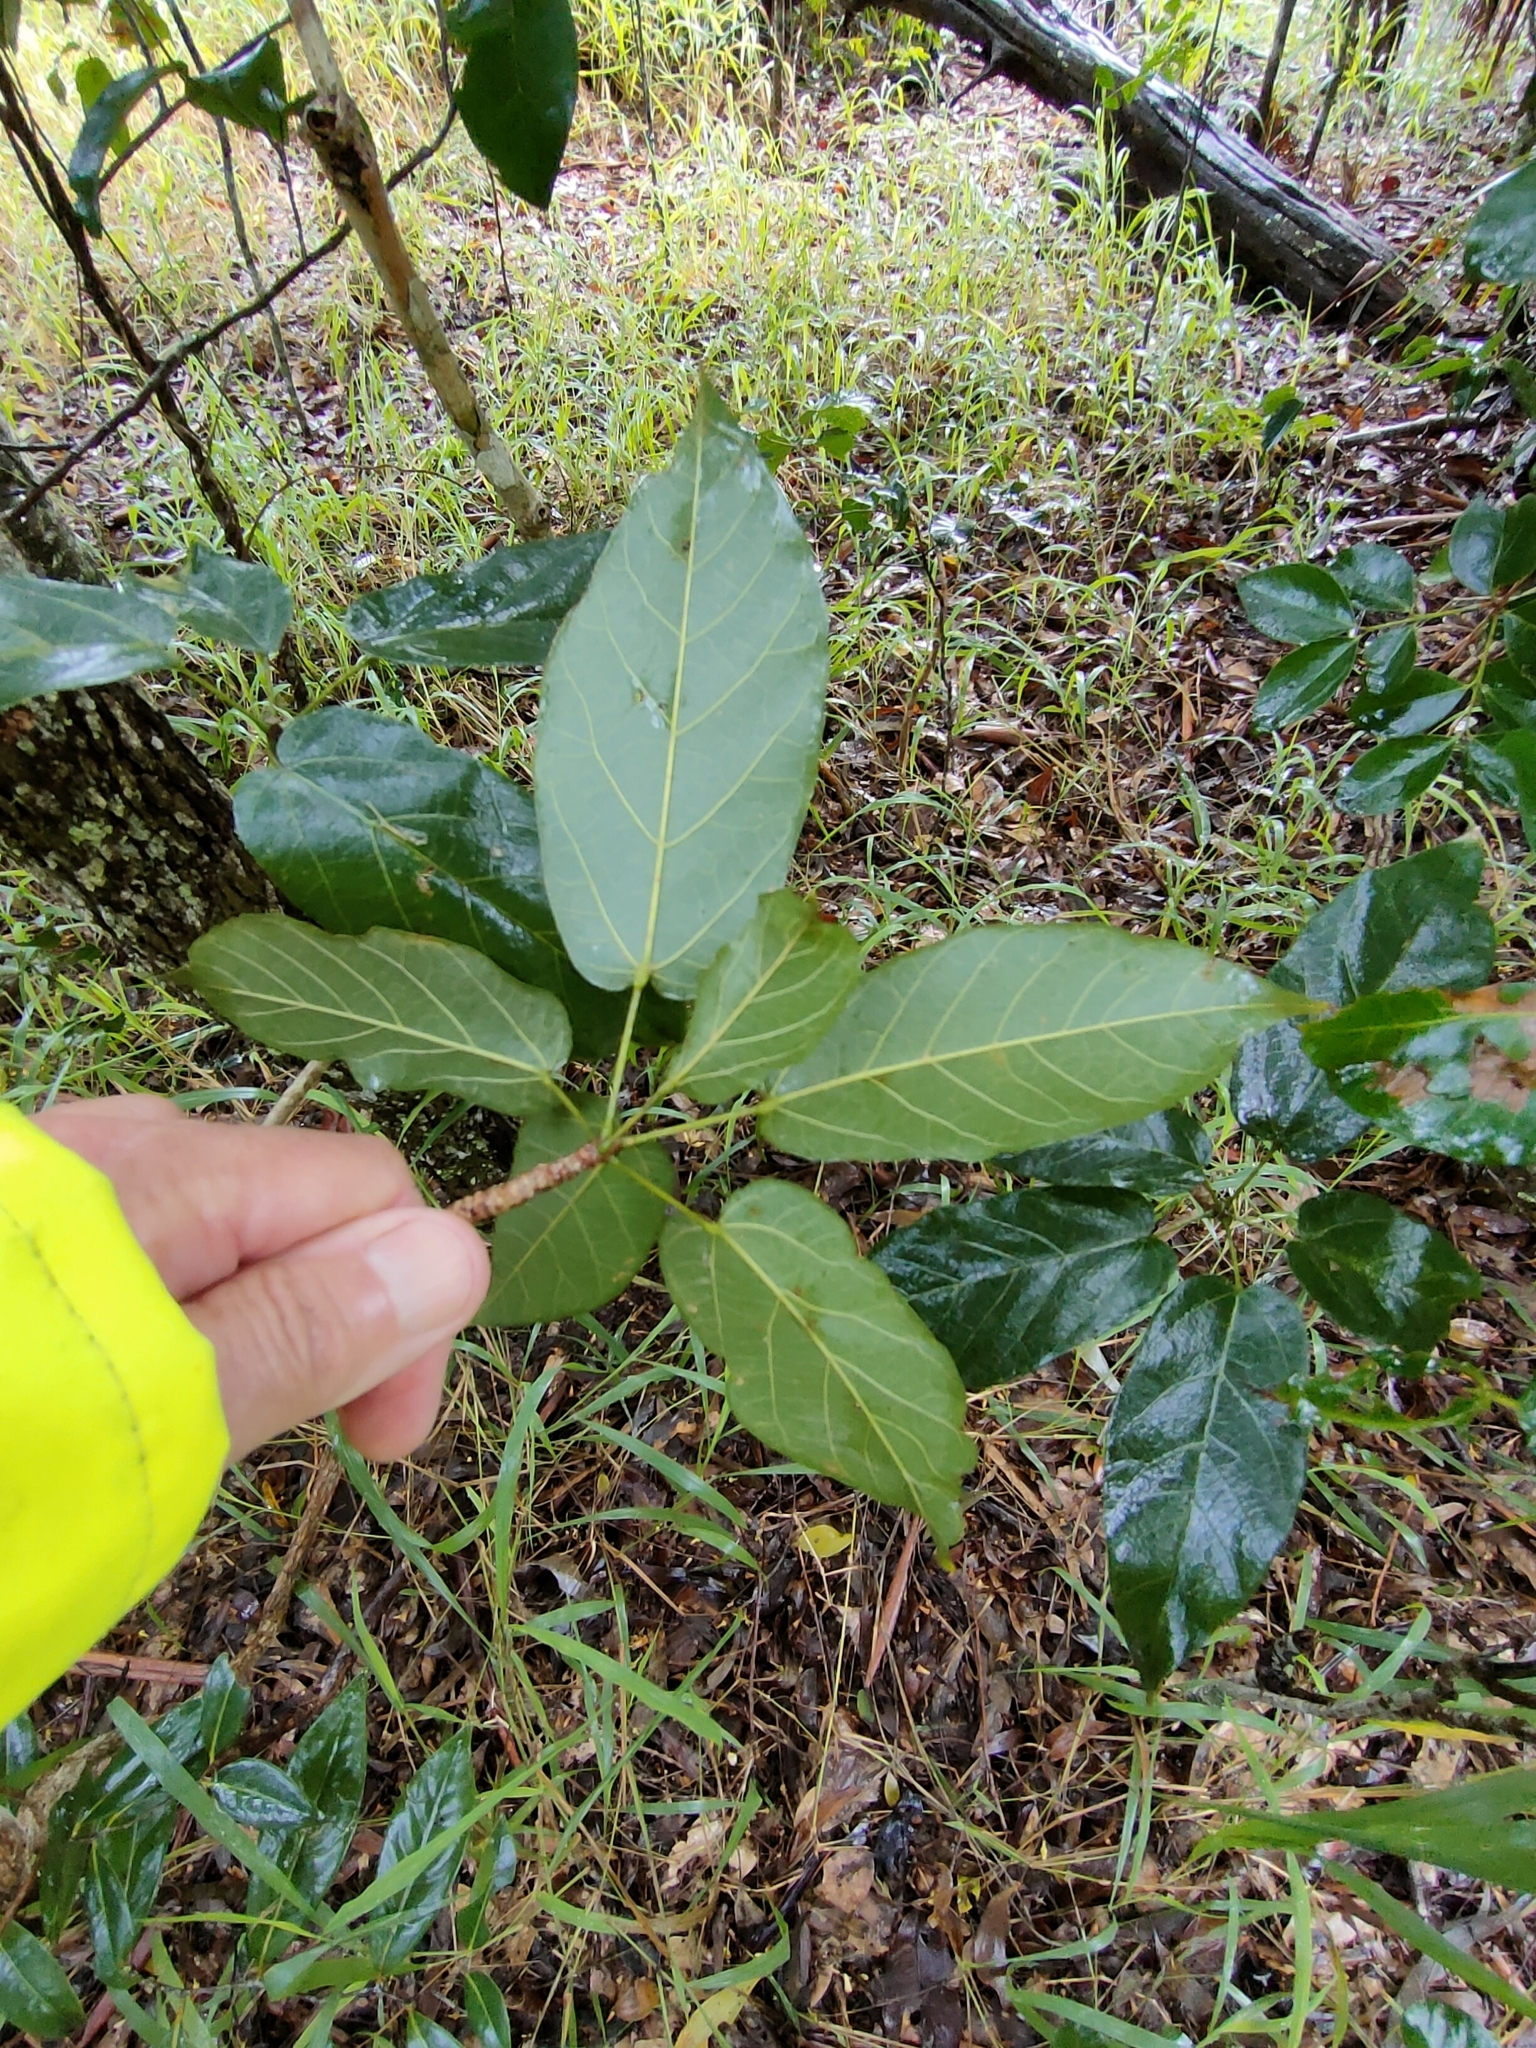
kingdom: Plantae
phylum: Tracheophyta
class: Magnoliopsida
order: Malvales
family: Malvaceae
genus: Sterculia
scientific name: Sterculia quadrifida
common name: Orange-fruit kurrajong
